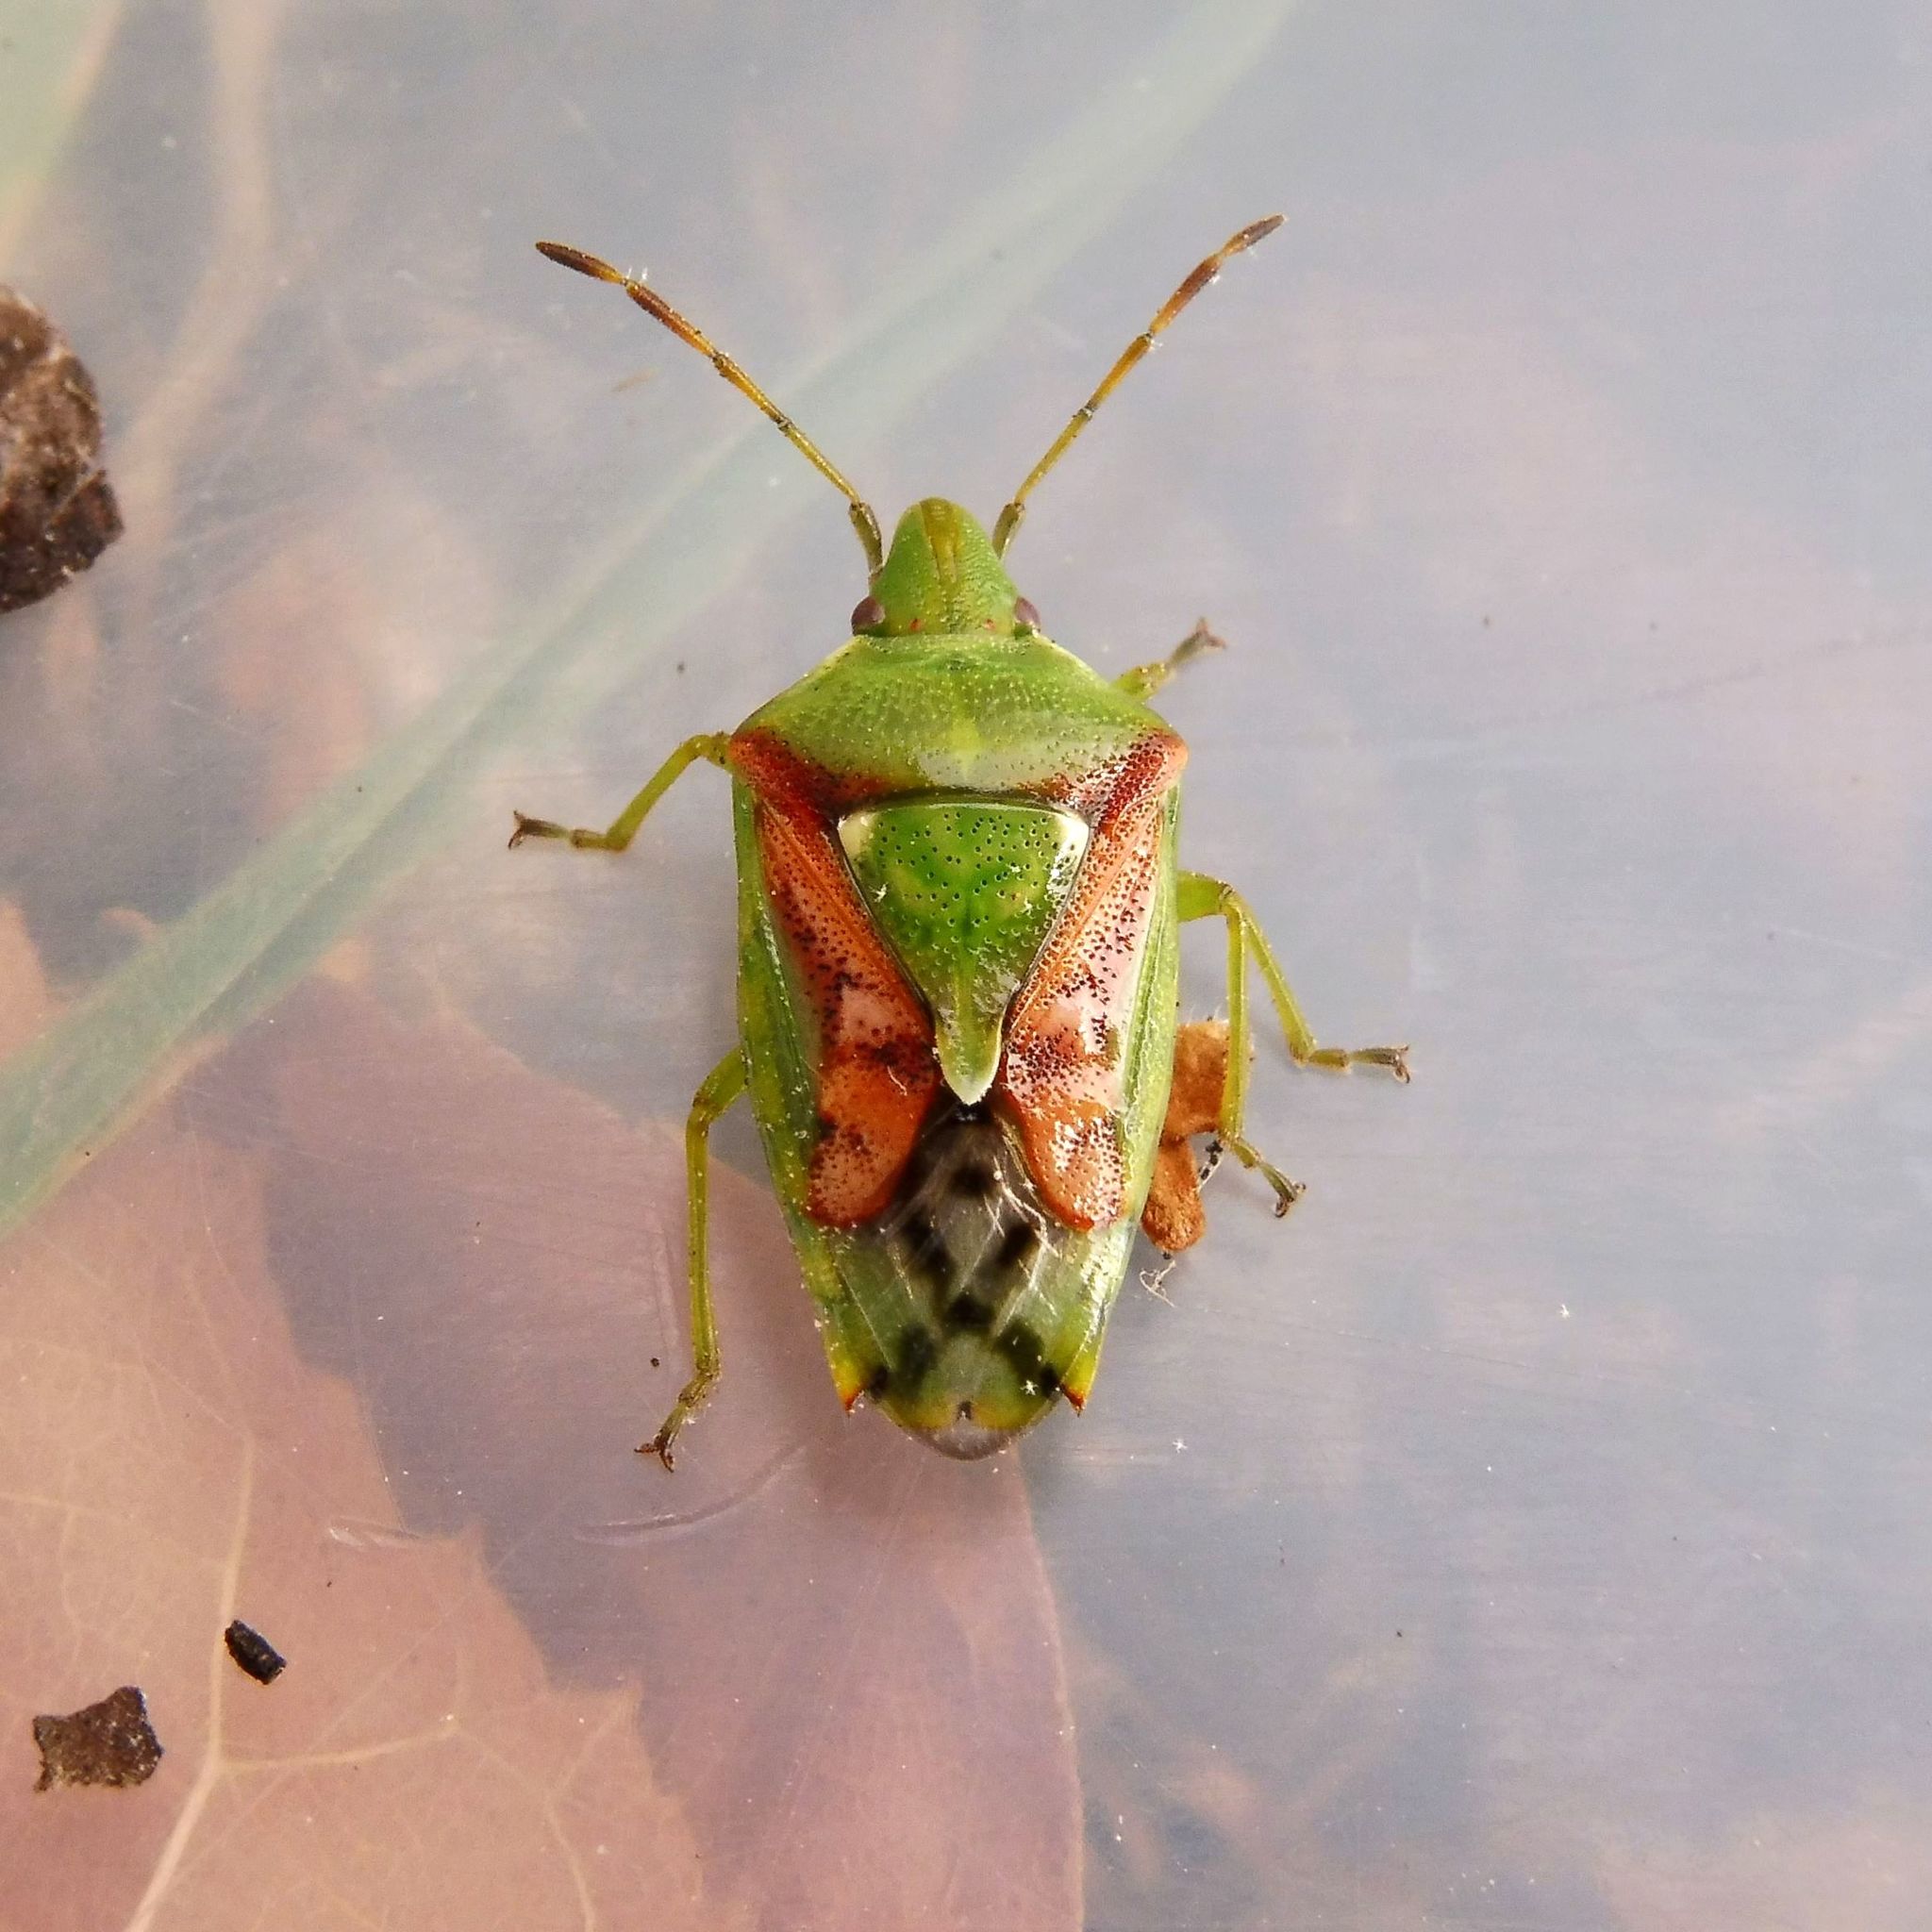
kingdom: Animalia
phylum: Arthropoda
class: Insecta
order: Hemiptera
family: Acanthosomatidae
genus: Cyphostethus
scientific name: Cyphostethus tristriatus
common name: Juniper shieldbug
